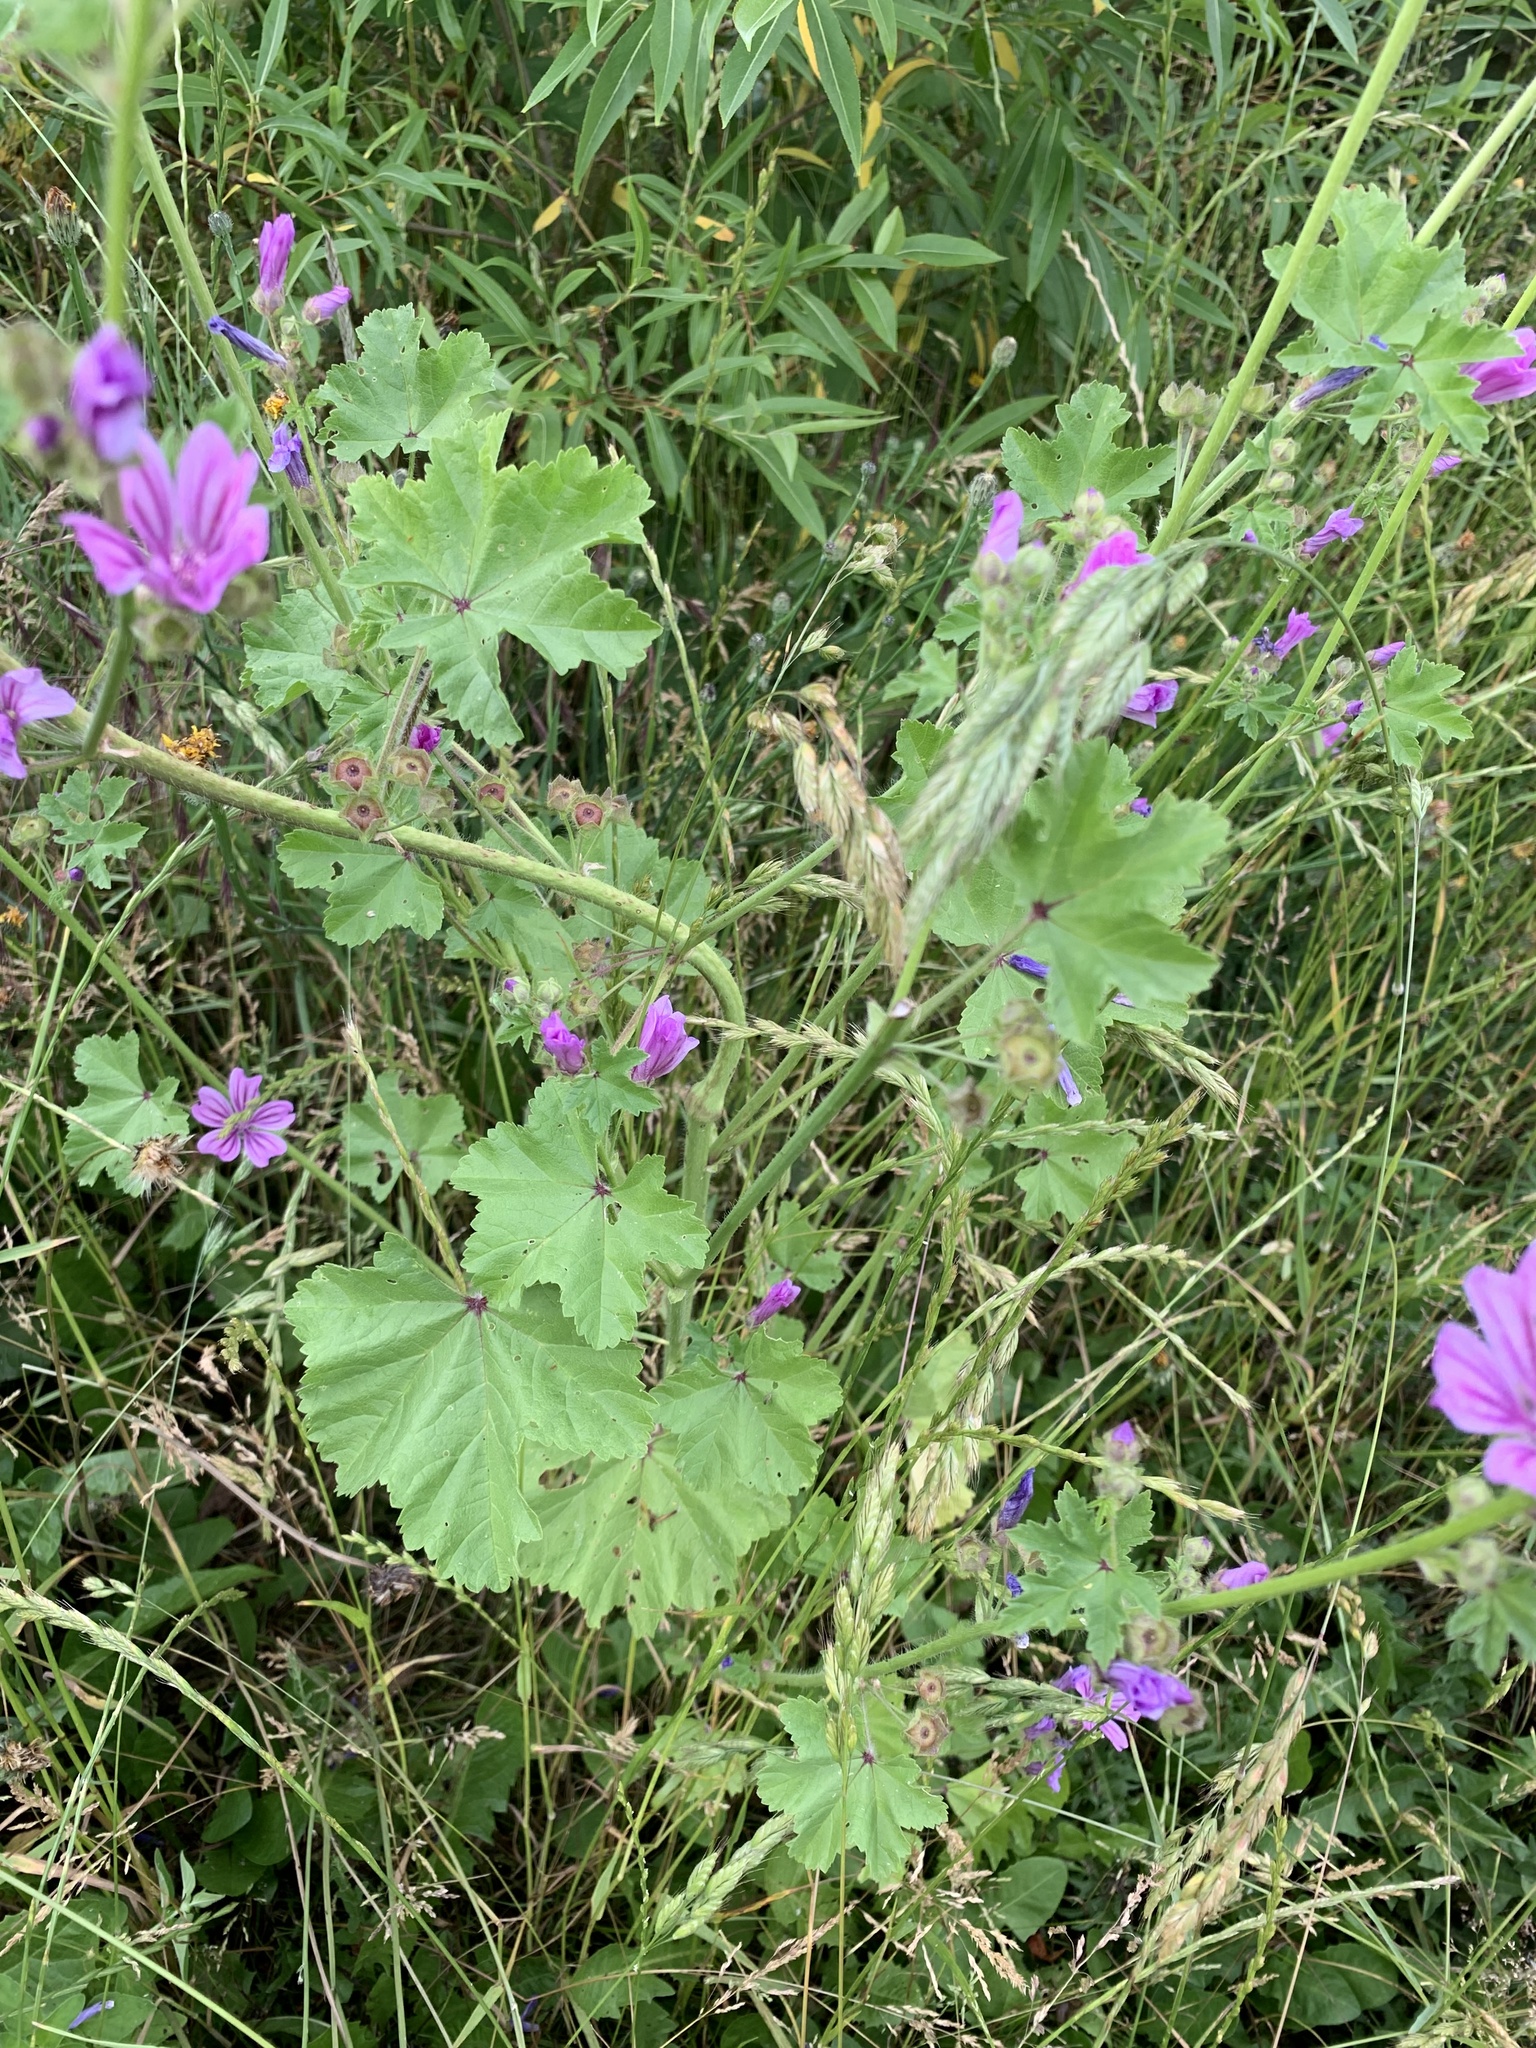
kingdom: Plantae
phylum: Tracheophyta
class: Magnoliopsida
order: Malvales
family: Malvaceae
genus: Malva
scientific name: Malva sylvestris
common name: Common mallow
